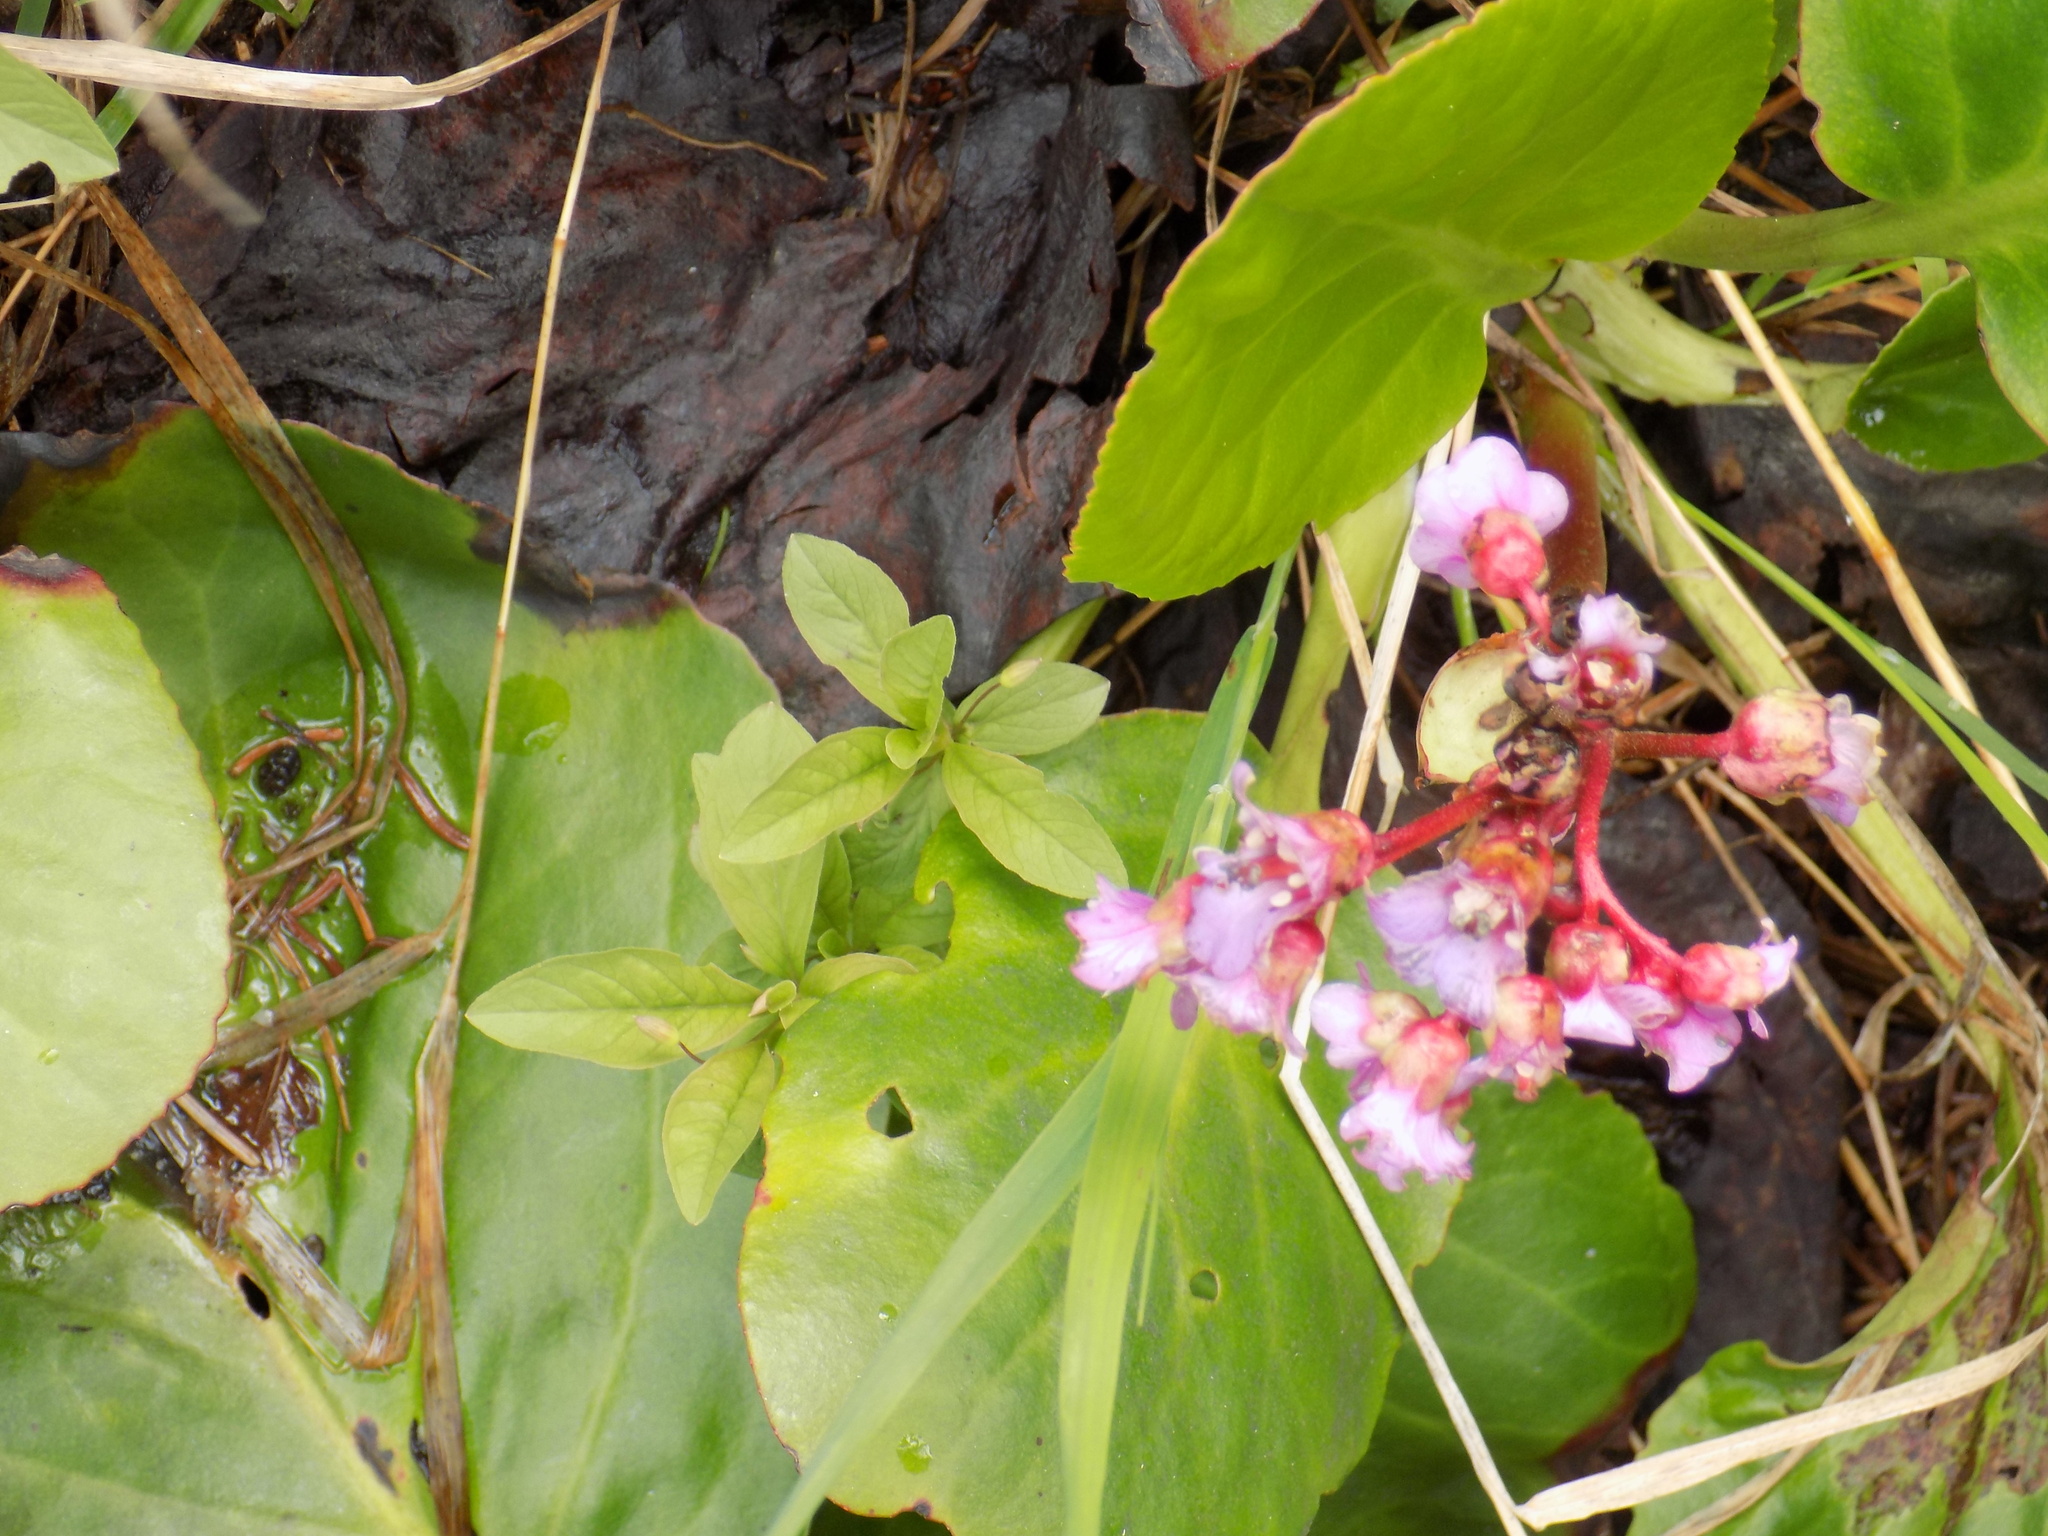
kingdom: Plantae
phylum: Tracheophyta
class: Magnoliopsida
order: Saxifragales
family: Saxifragaceae
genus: Bergenia
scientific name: Bergenia crassifolia
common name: Elephant-ears
